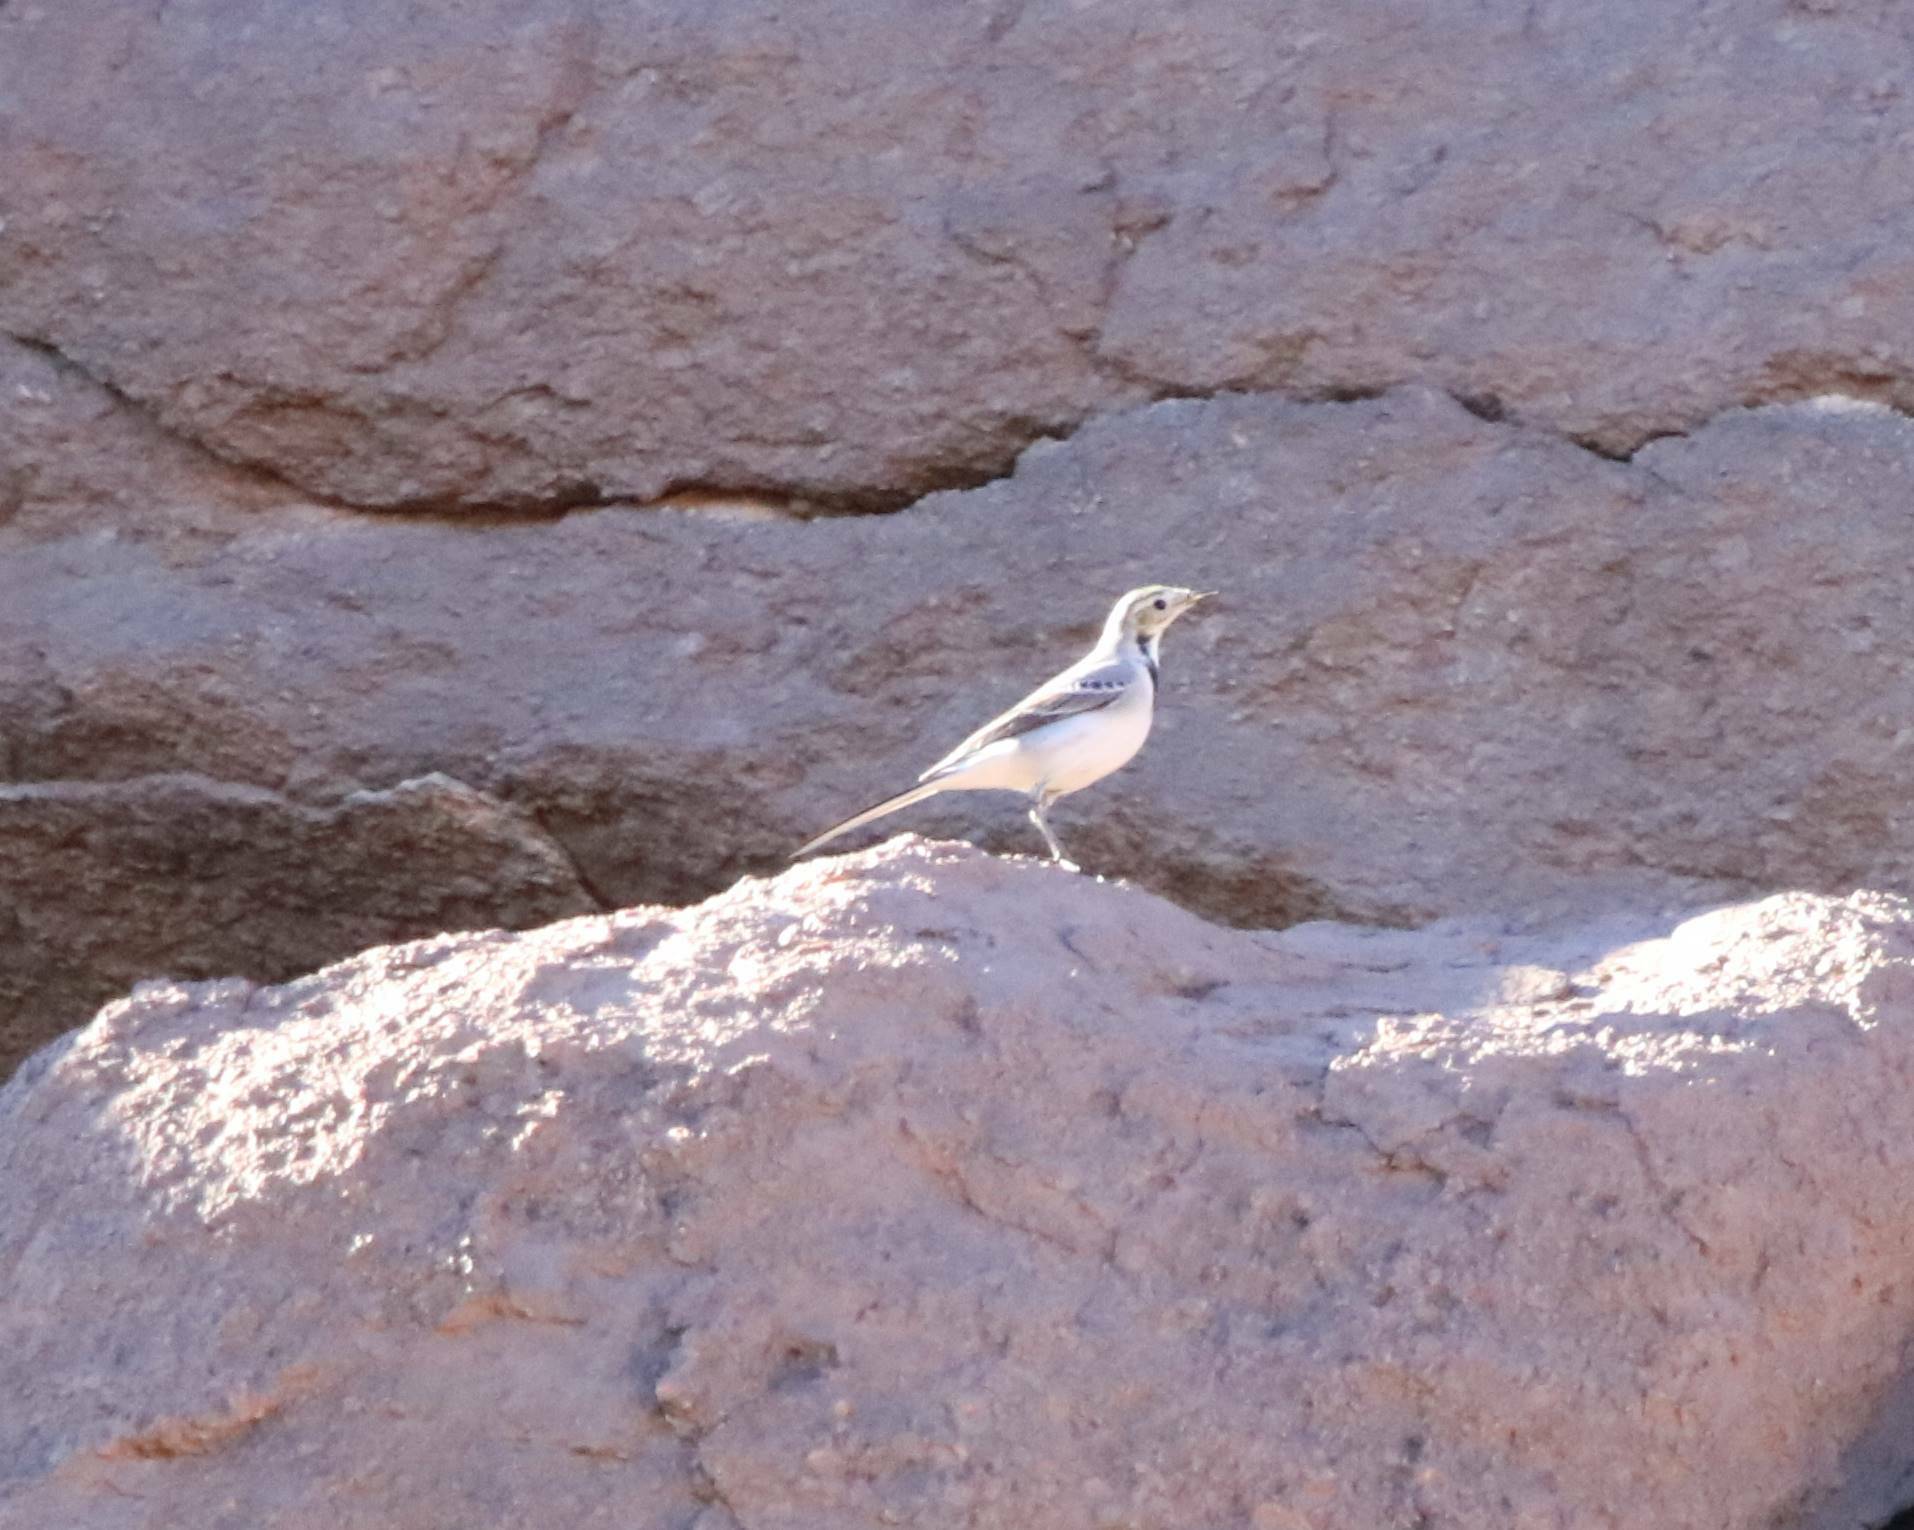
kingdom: Animalia
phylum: Chordata
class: Aves
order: Passeriformes
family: Motacillidae
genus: Motacilla
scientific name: Motacilla alba
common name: White wagtail
